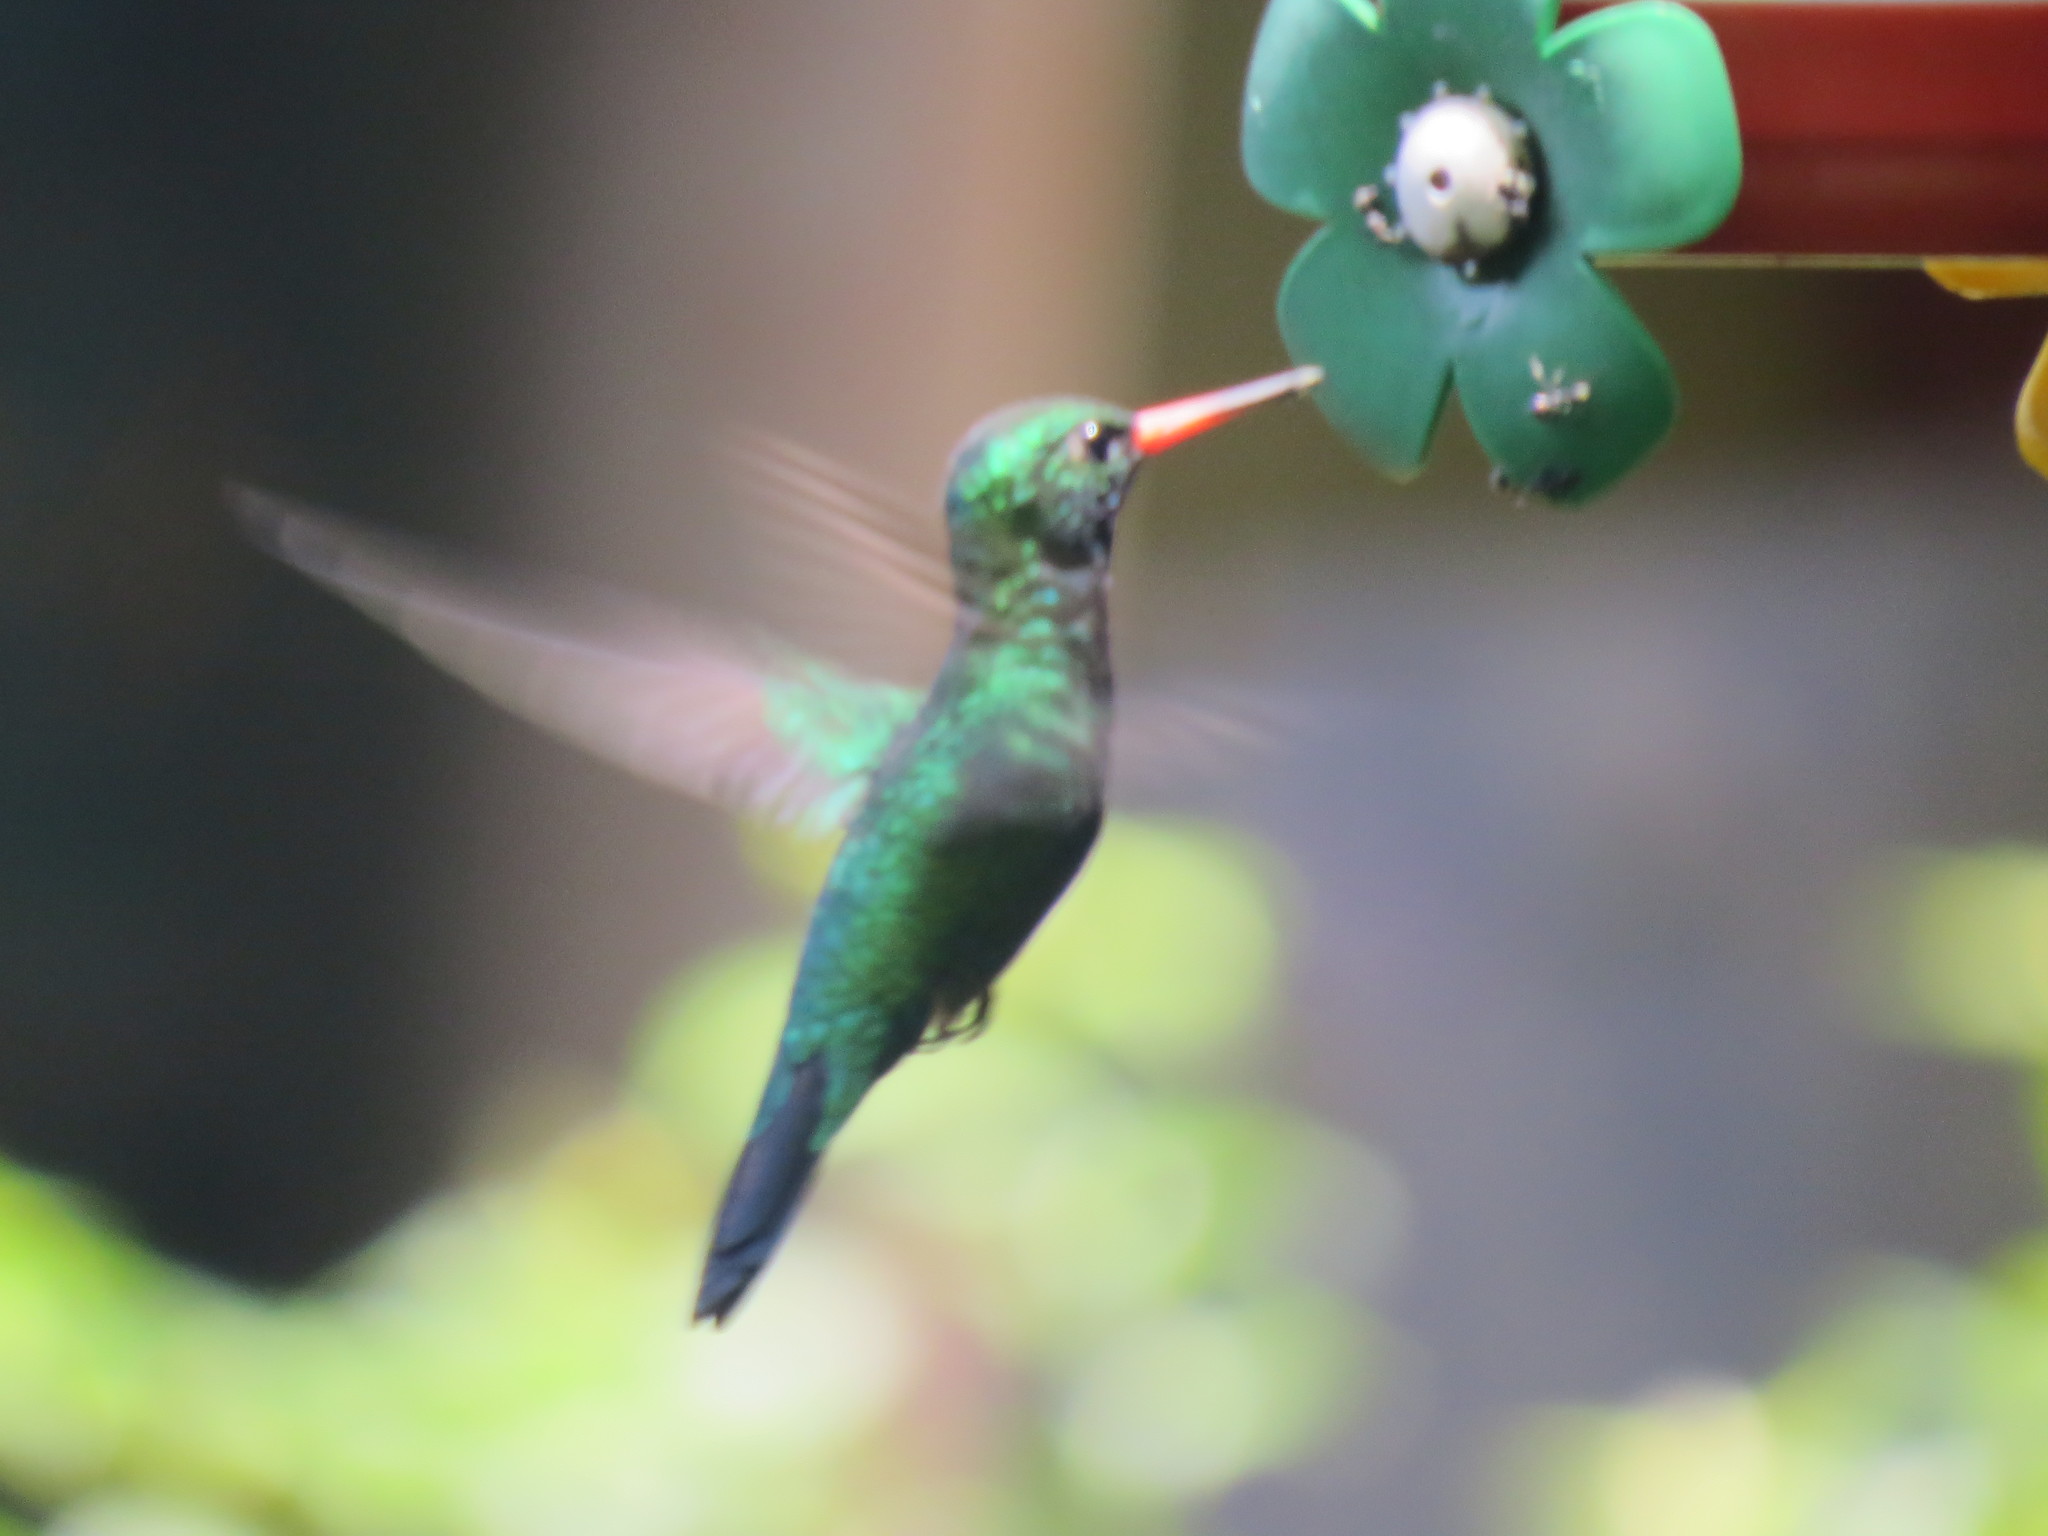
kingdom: Animalia
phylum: Chordata
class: Aves
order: Apodiformes
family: Trochilidae
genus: Chlorostilbon
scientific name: Chlorostilbon lucidus
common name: Glittering-bellied emerald
